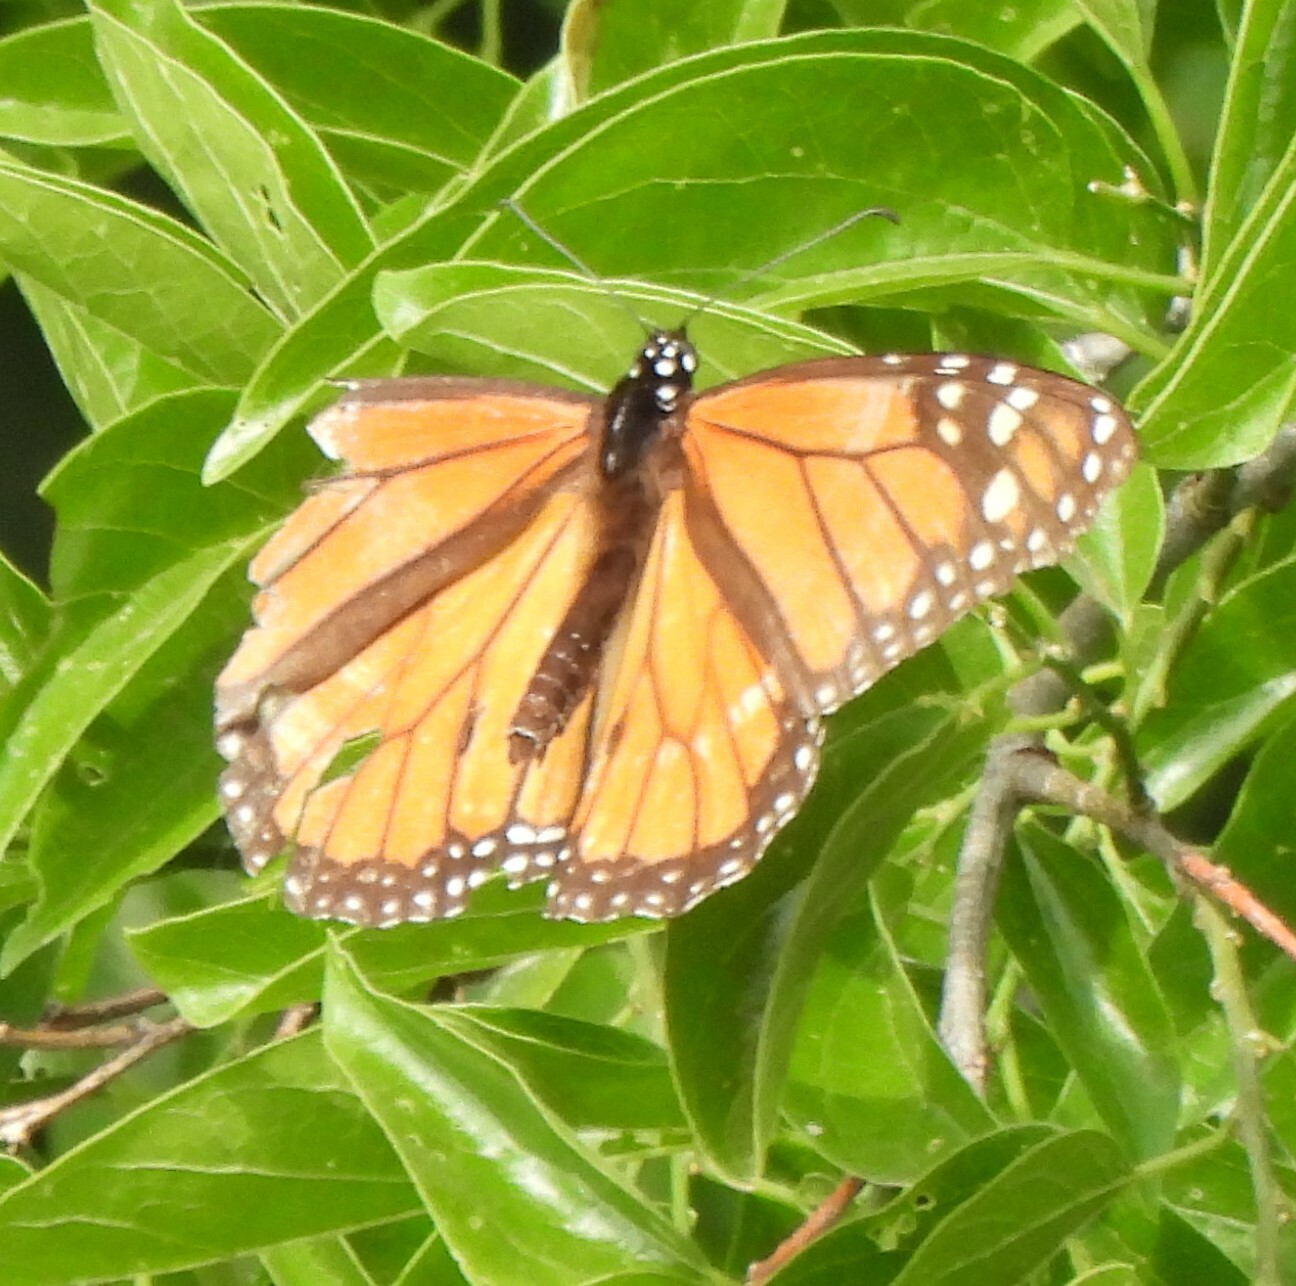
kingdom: Animalia
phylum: Arthropoda
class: Insecta
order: Lepidoptera
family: Nymphalidae
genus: Danaus
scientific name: Danaus plexippus
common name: Monarch
